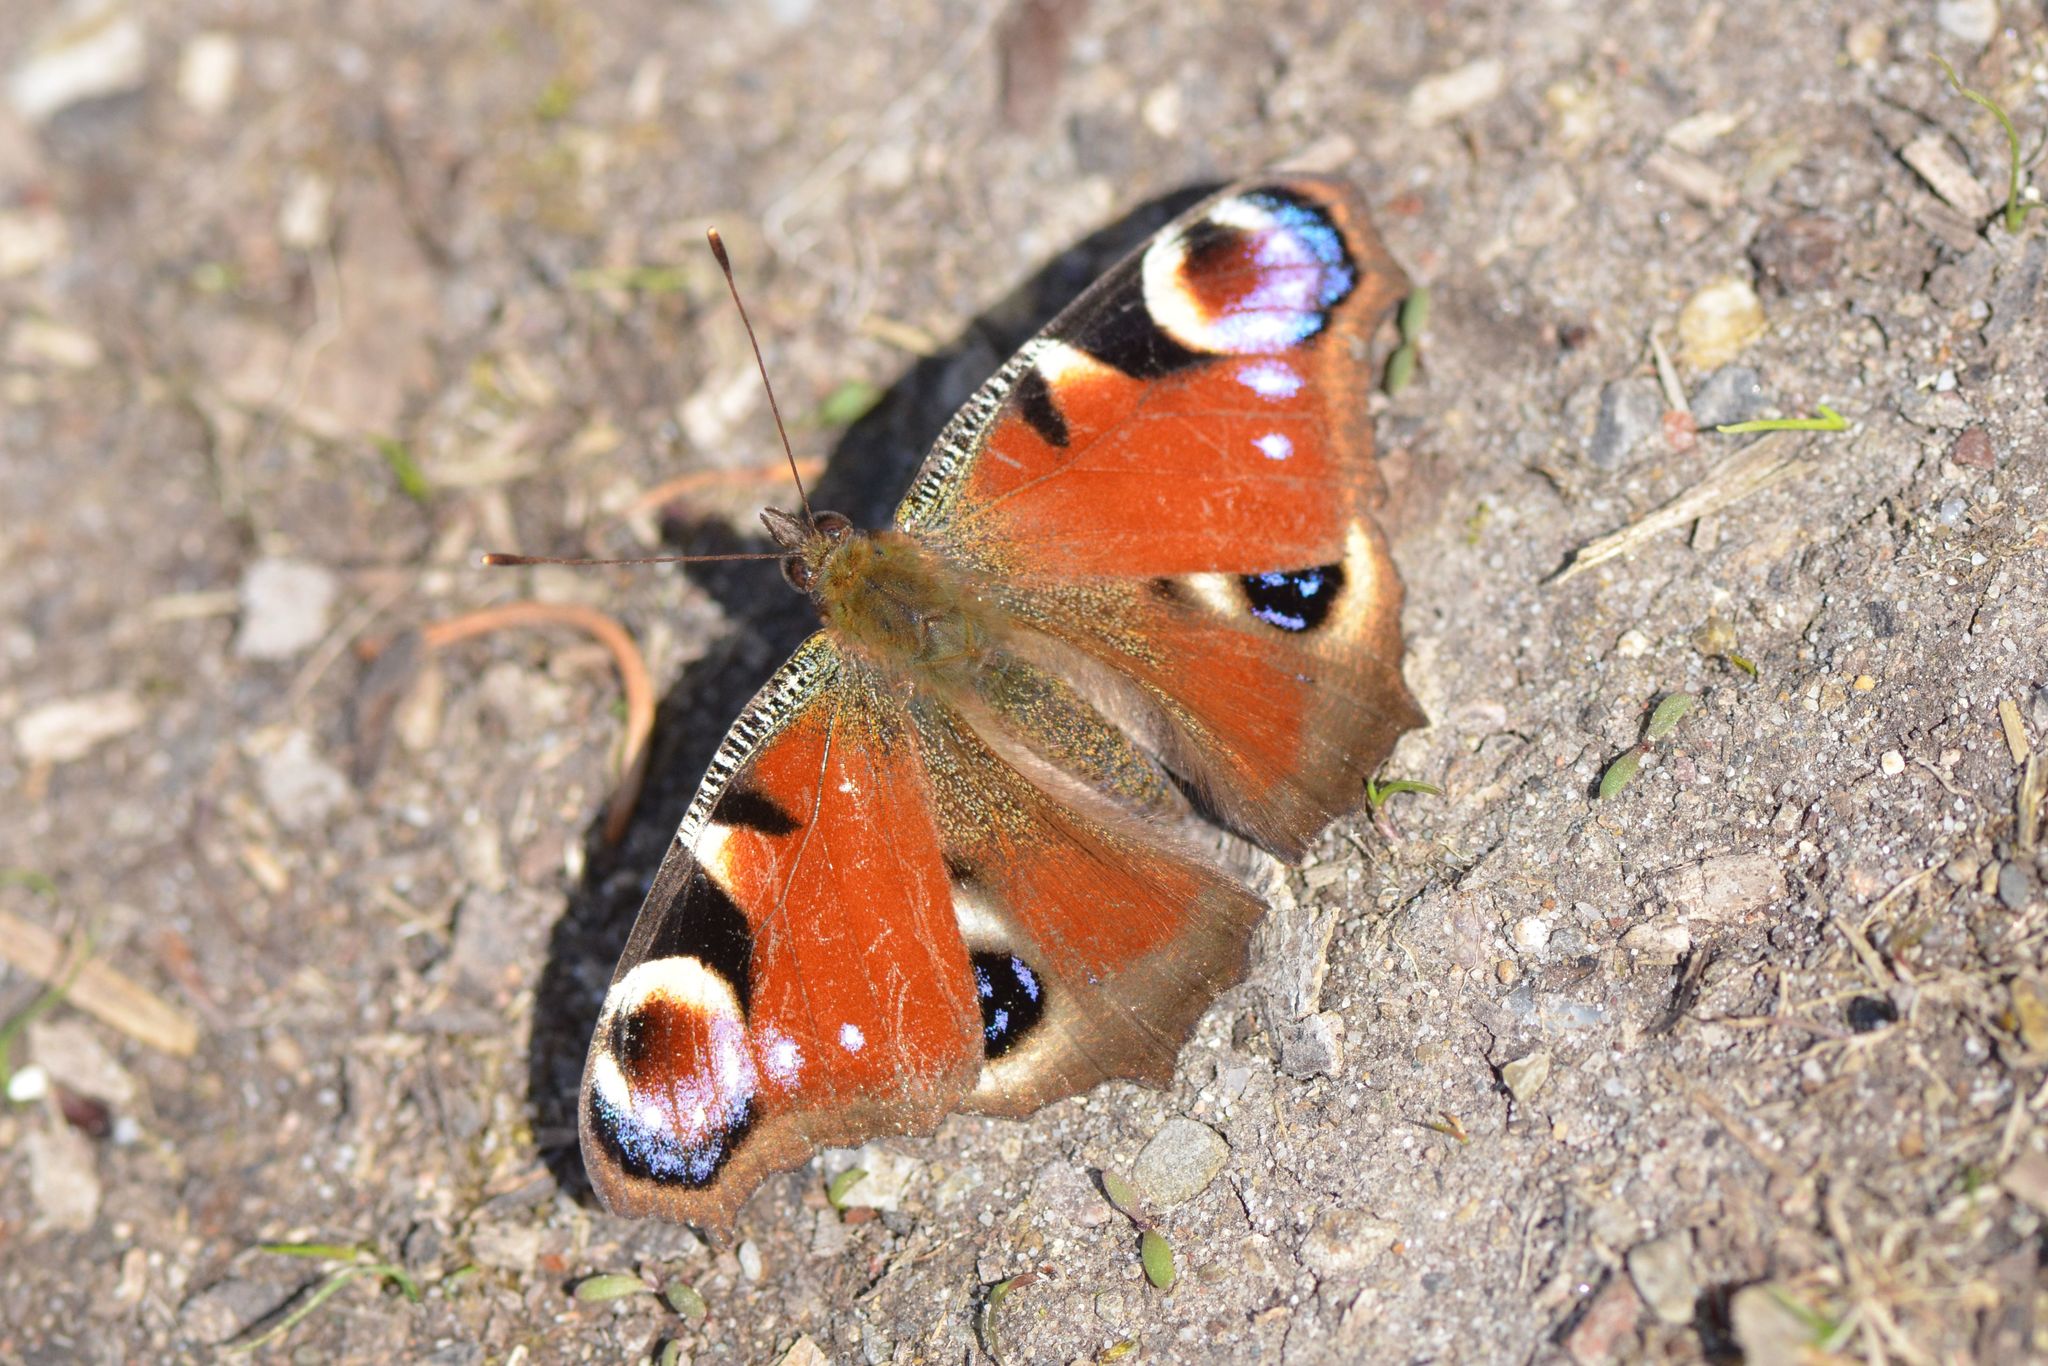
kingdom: Animalia
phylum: Arthropoda
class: Insecta
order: Lepidoptera
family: Nymphalidae
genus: Aglais
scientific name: Aglais io
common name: Peacock
